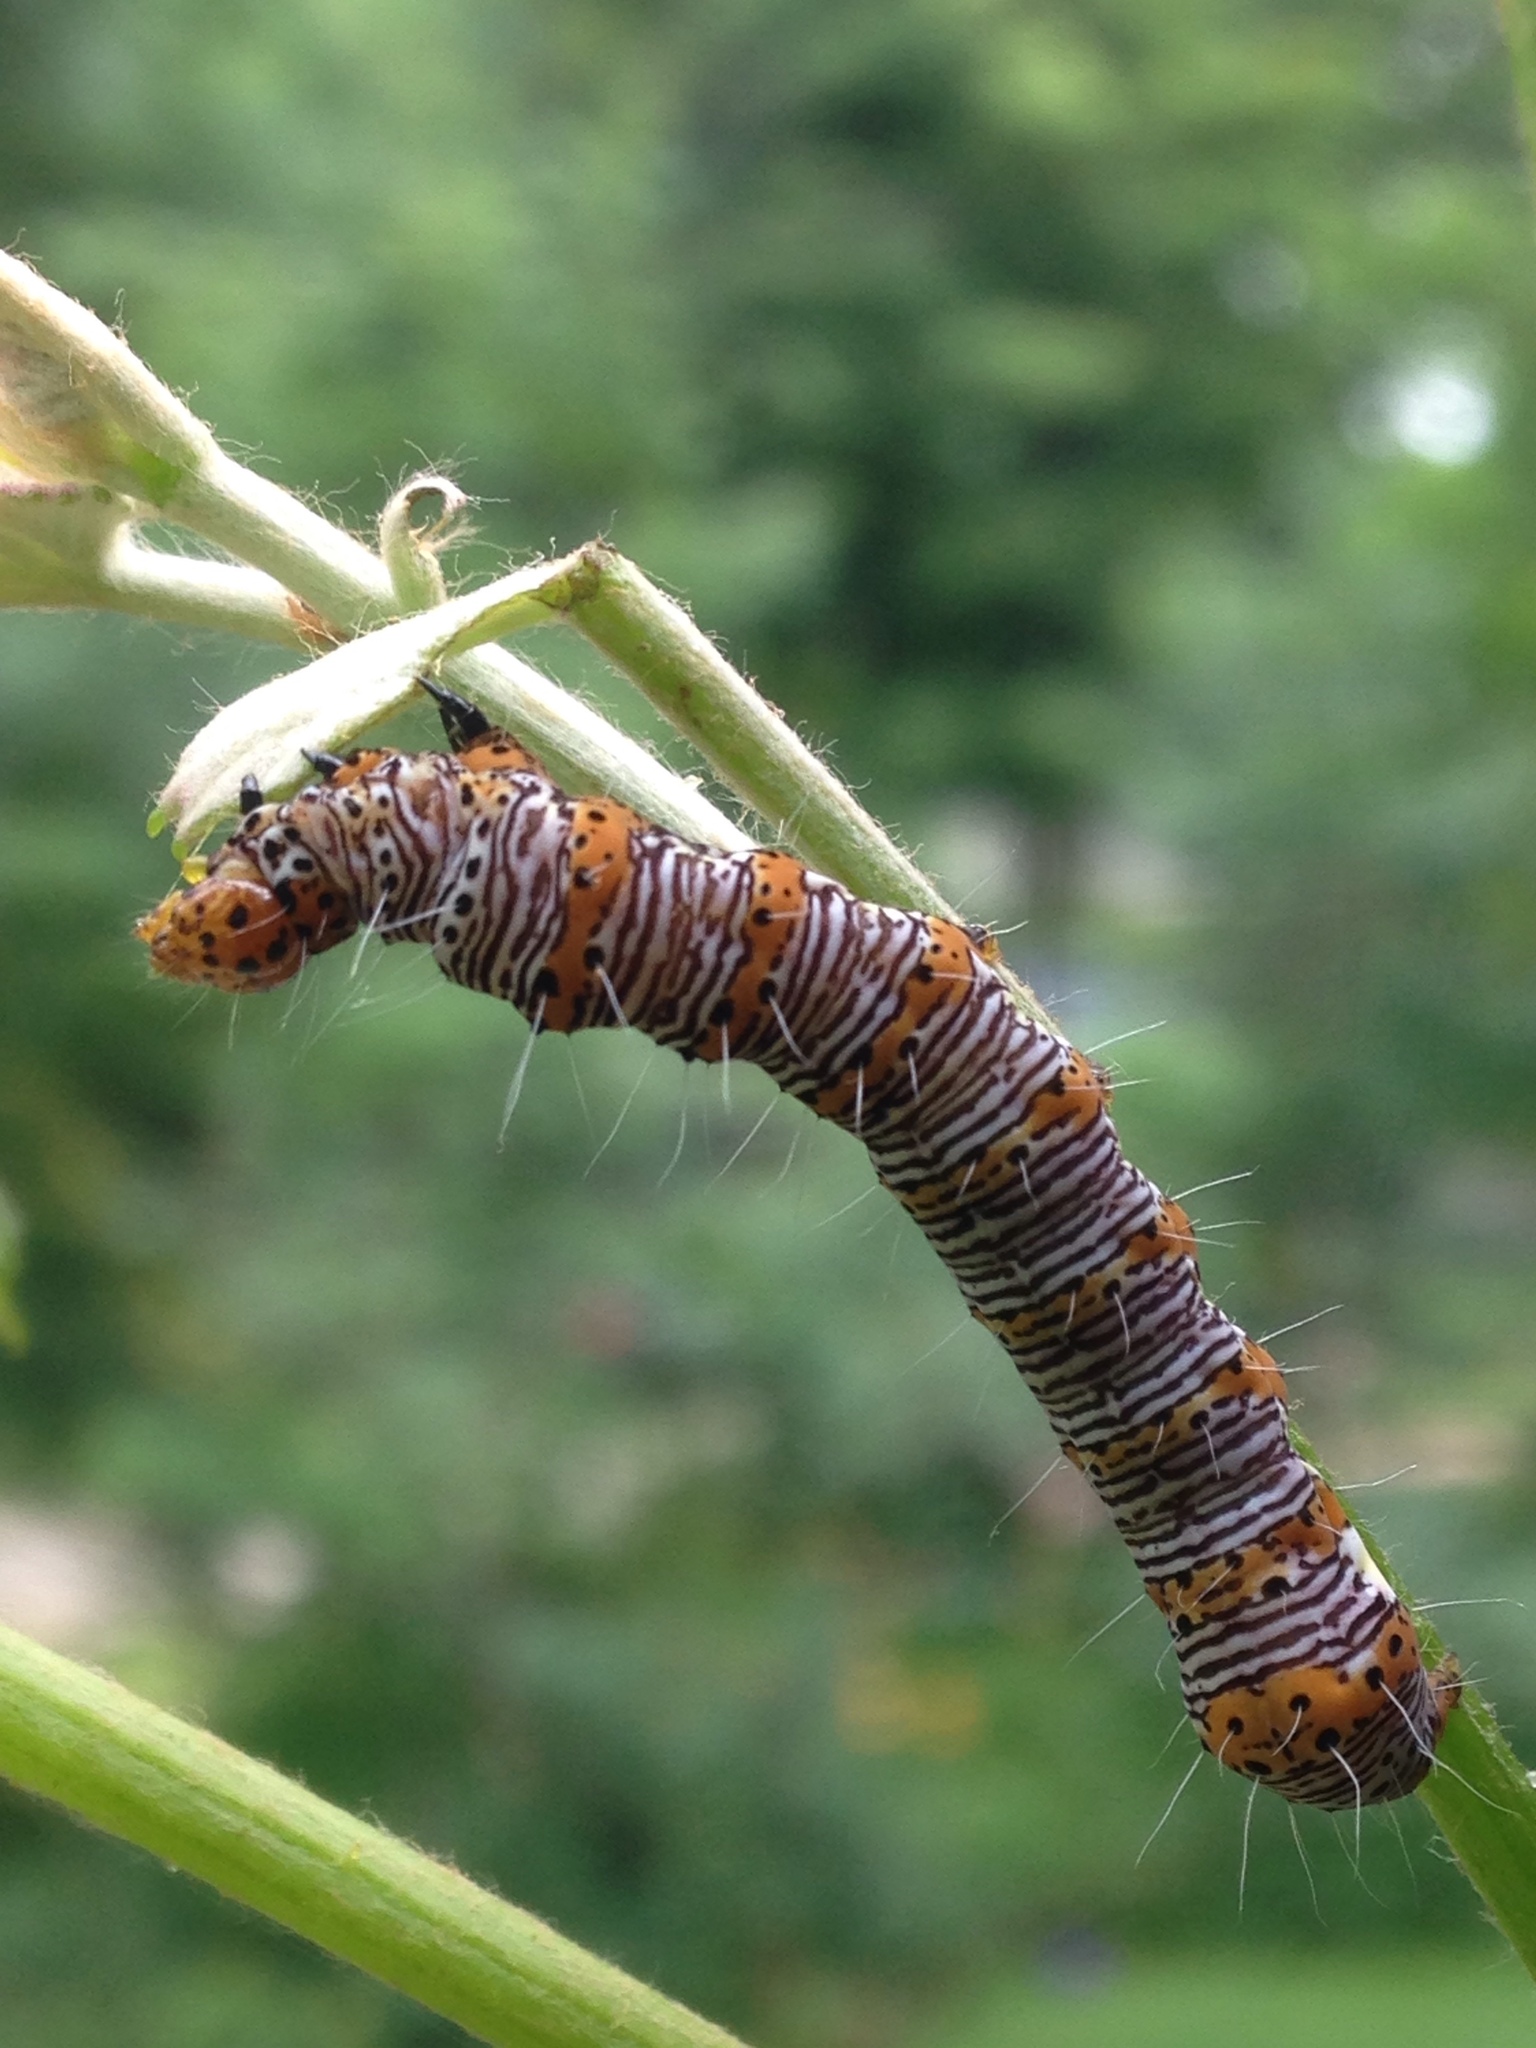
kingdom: Animalia
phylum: Arthropoda
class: Insecta
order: Lepidoptera
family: Noctuidae
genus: Alypia
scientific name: Alypia octomaculata
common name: Eight-spotted forester
